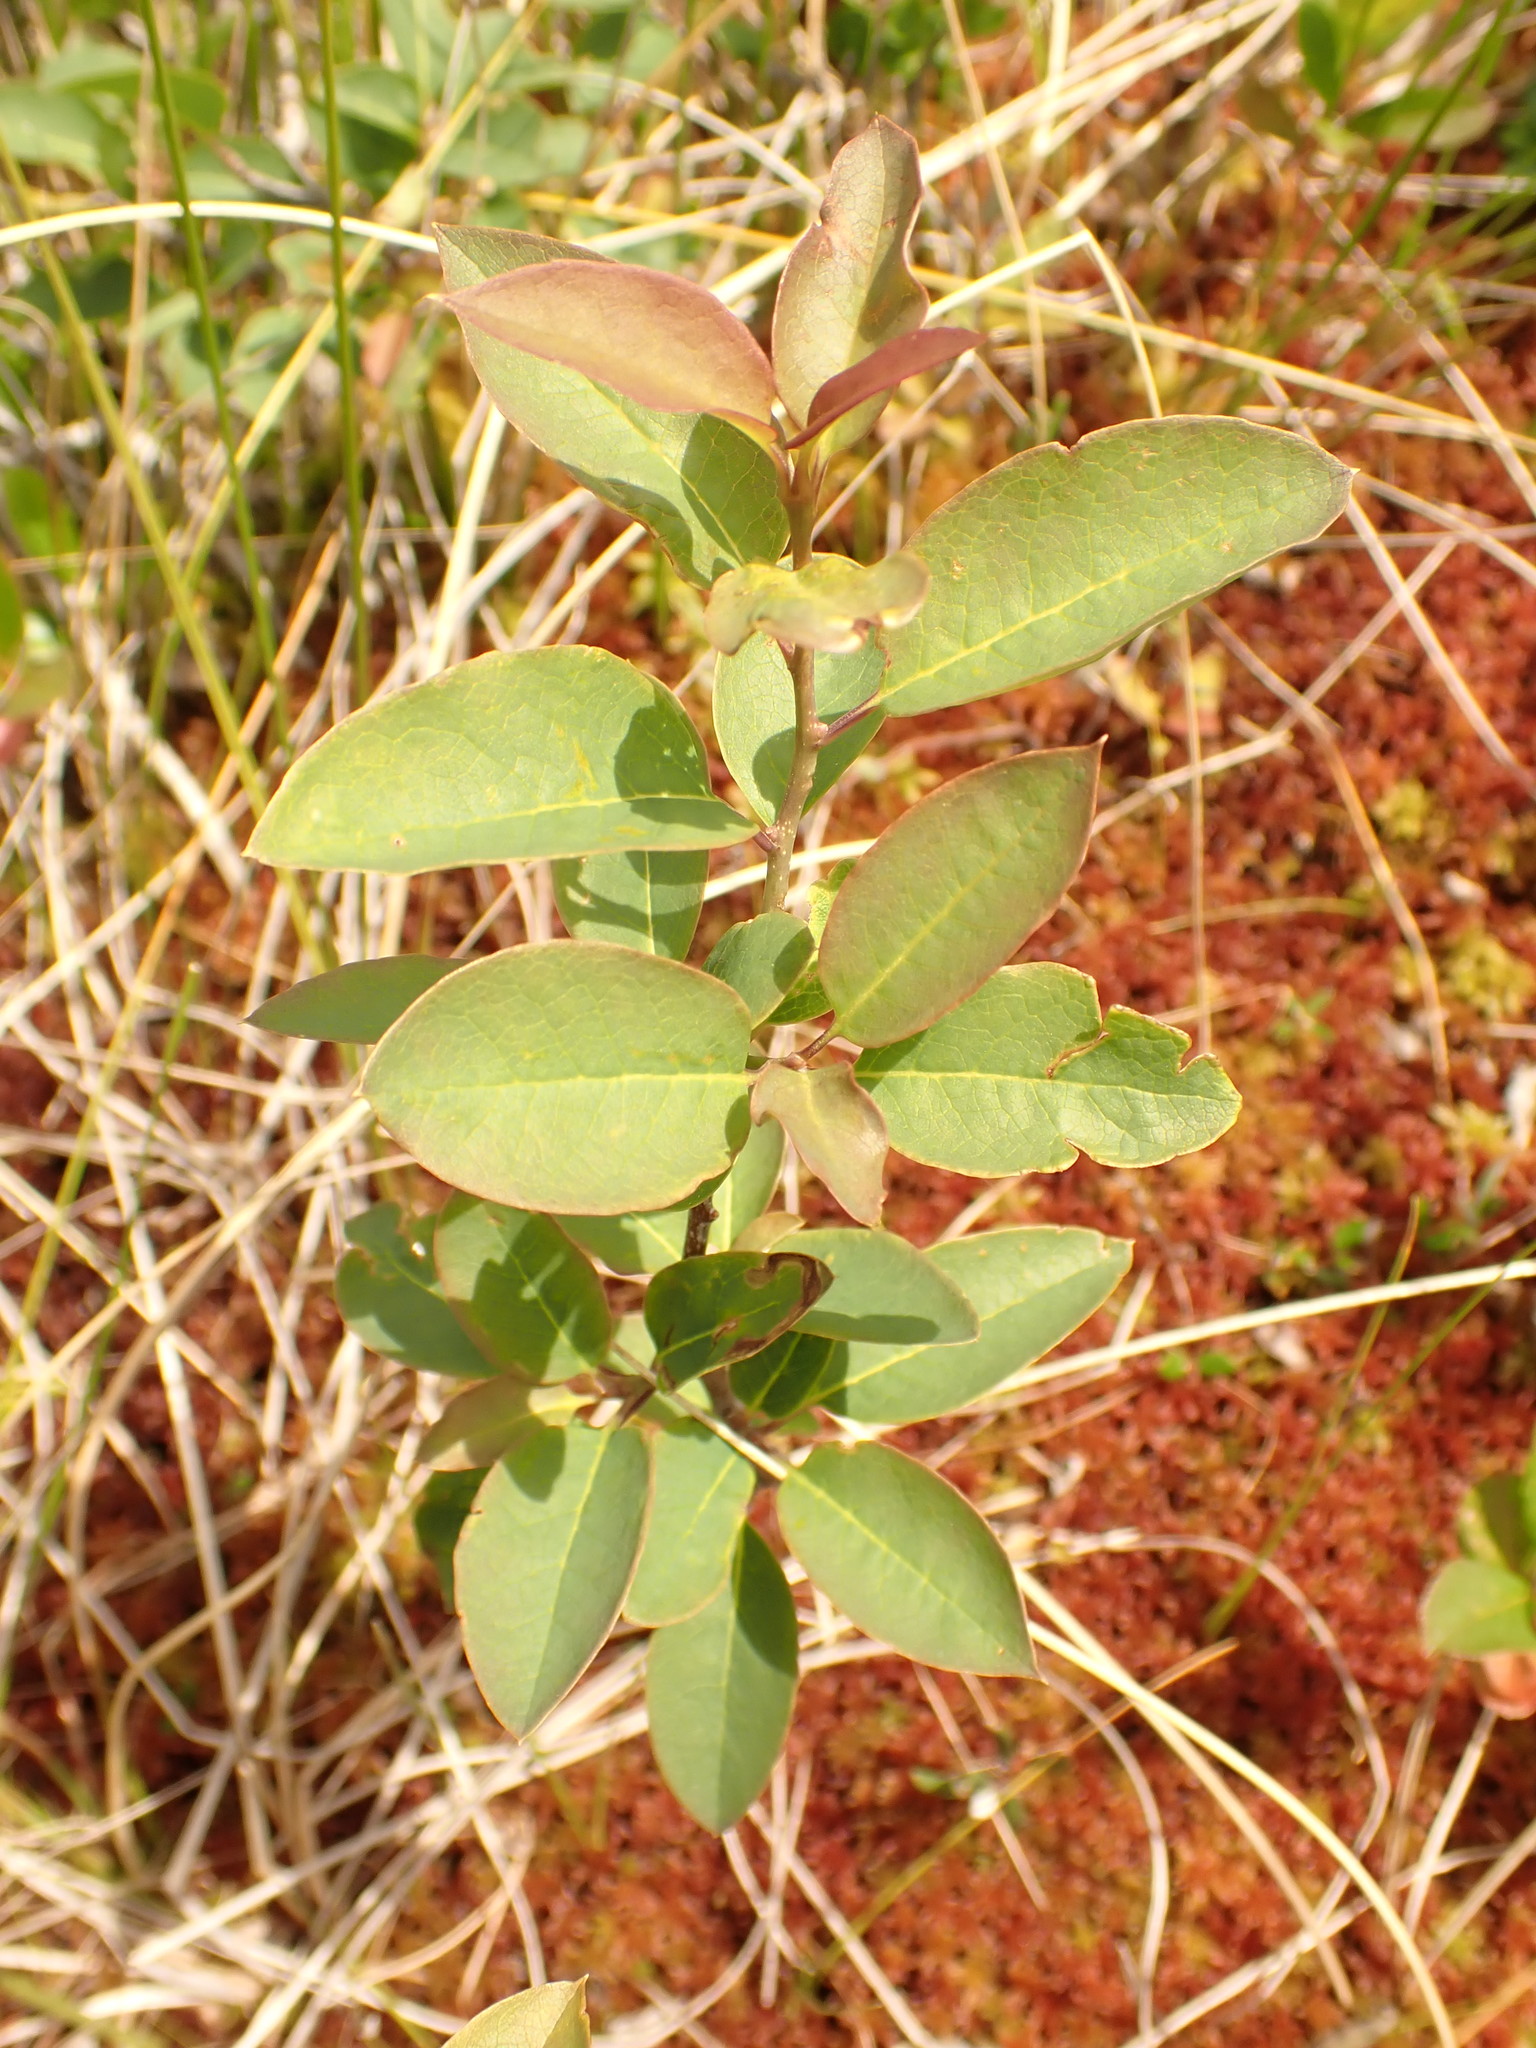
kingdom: Plantae
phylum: Tracheophyta
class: Magnoliopsida
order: Aquifoliales
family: Aquifoliaceae
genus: Ilex
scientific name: Ilex mucronata
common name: Catberry
